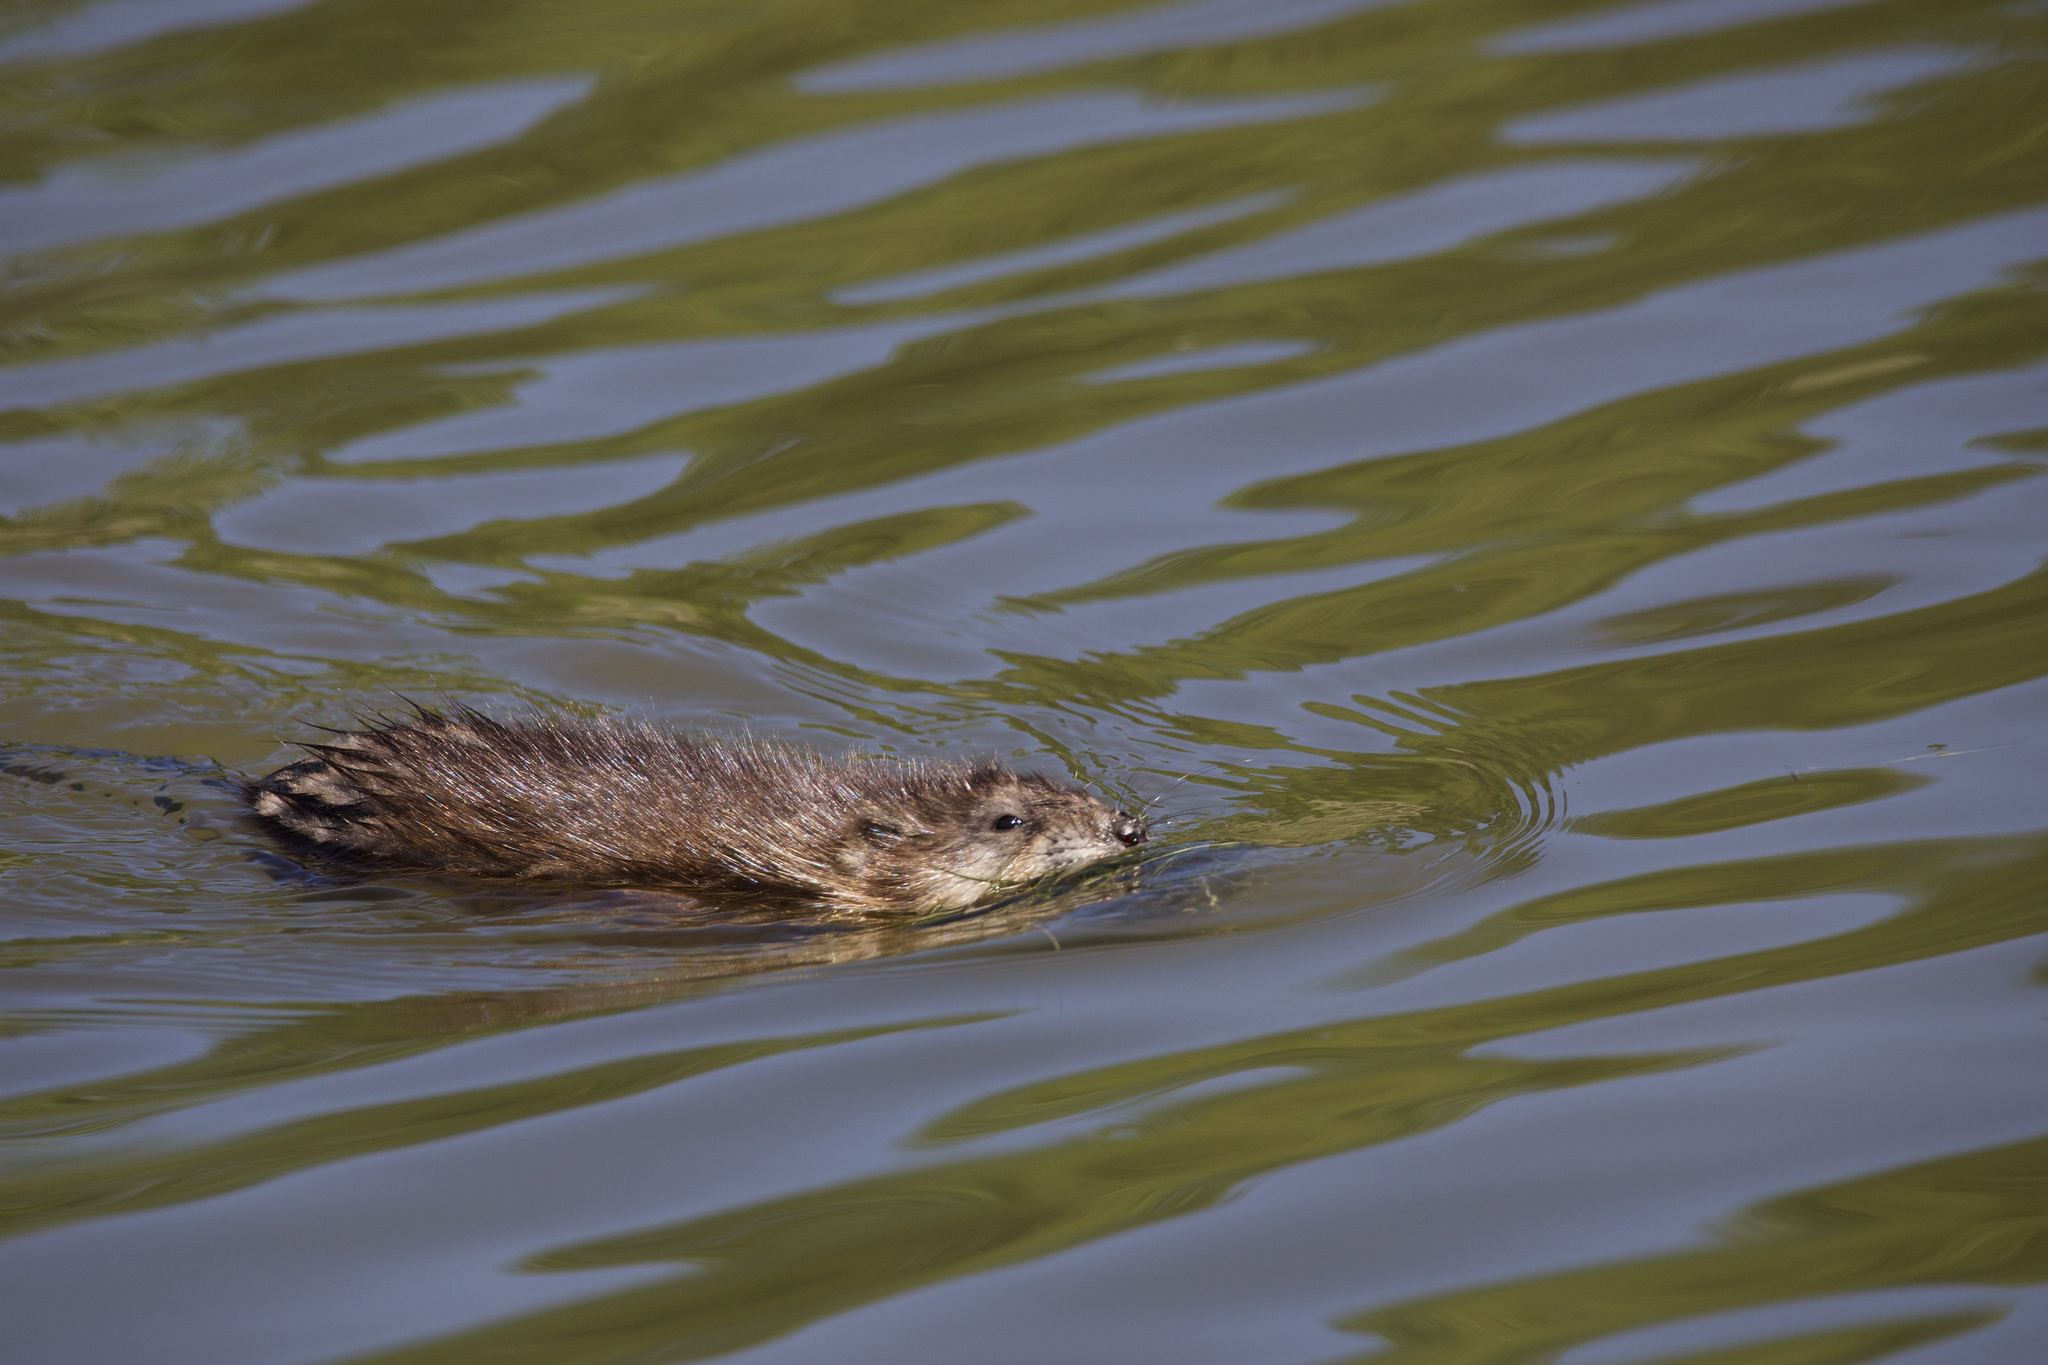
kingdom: Animalia
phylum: Chordata
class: Mammalia
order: Rodentia
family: Cricetidae
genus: Ondatra
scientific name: Ondatra zibethicus
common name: Muskrat
